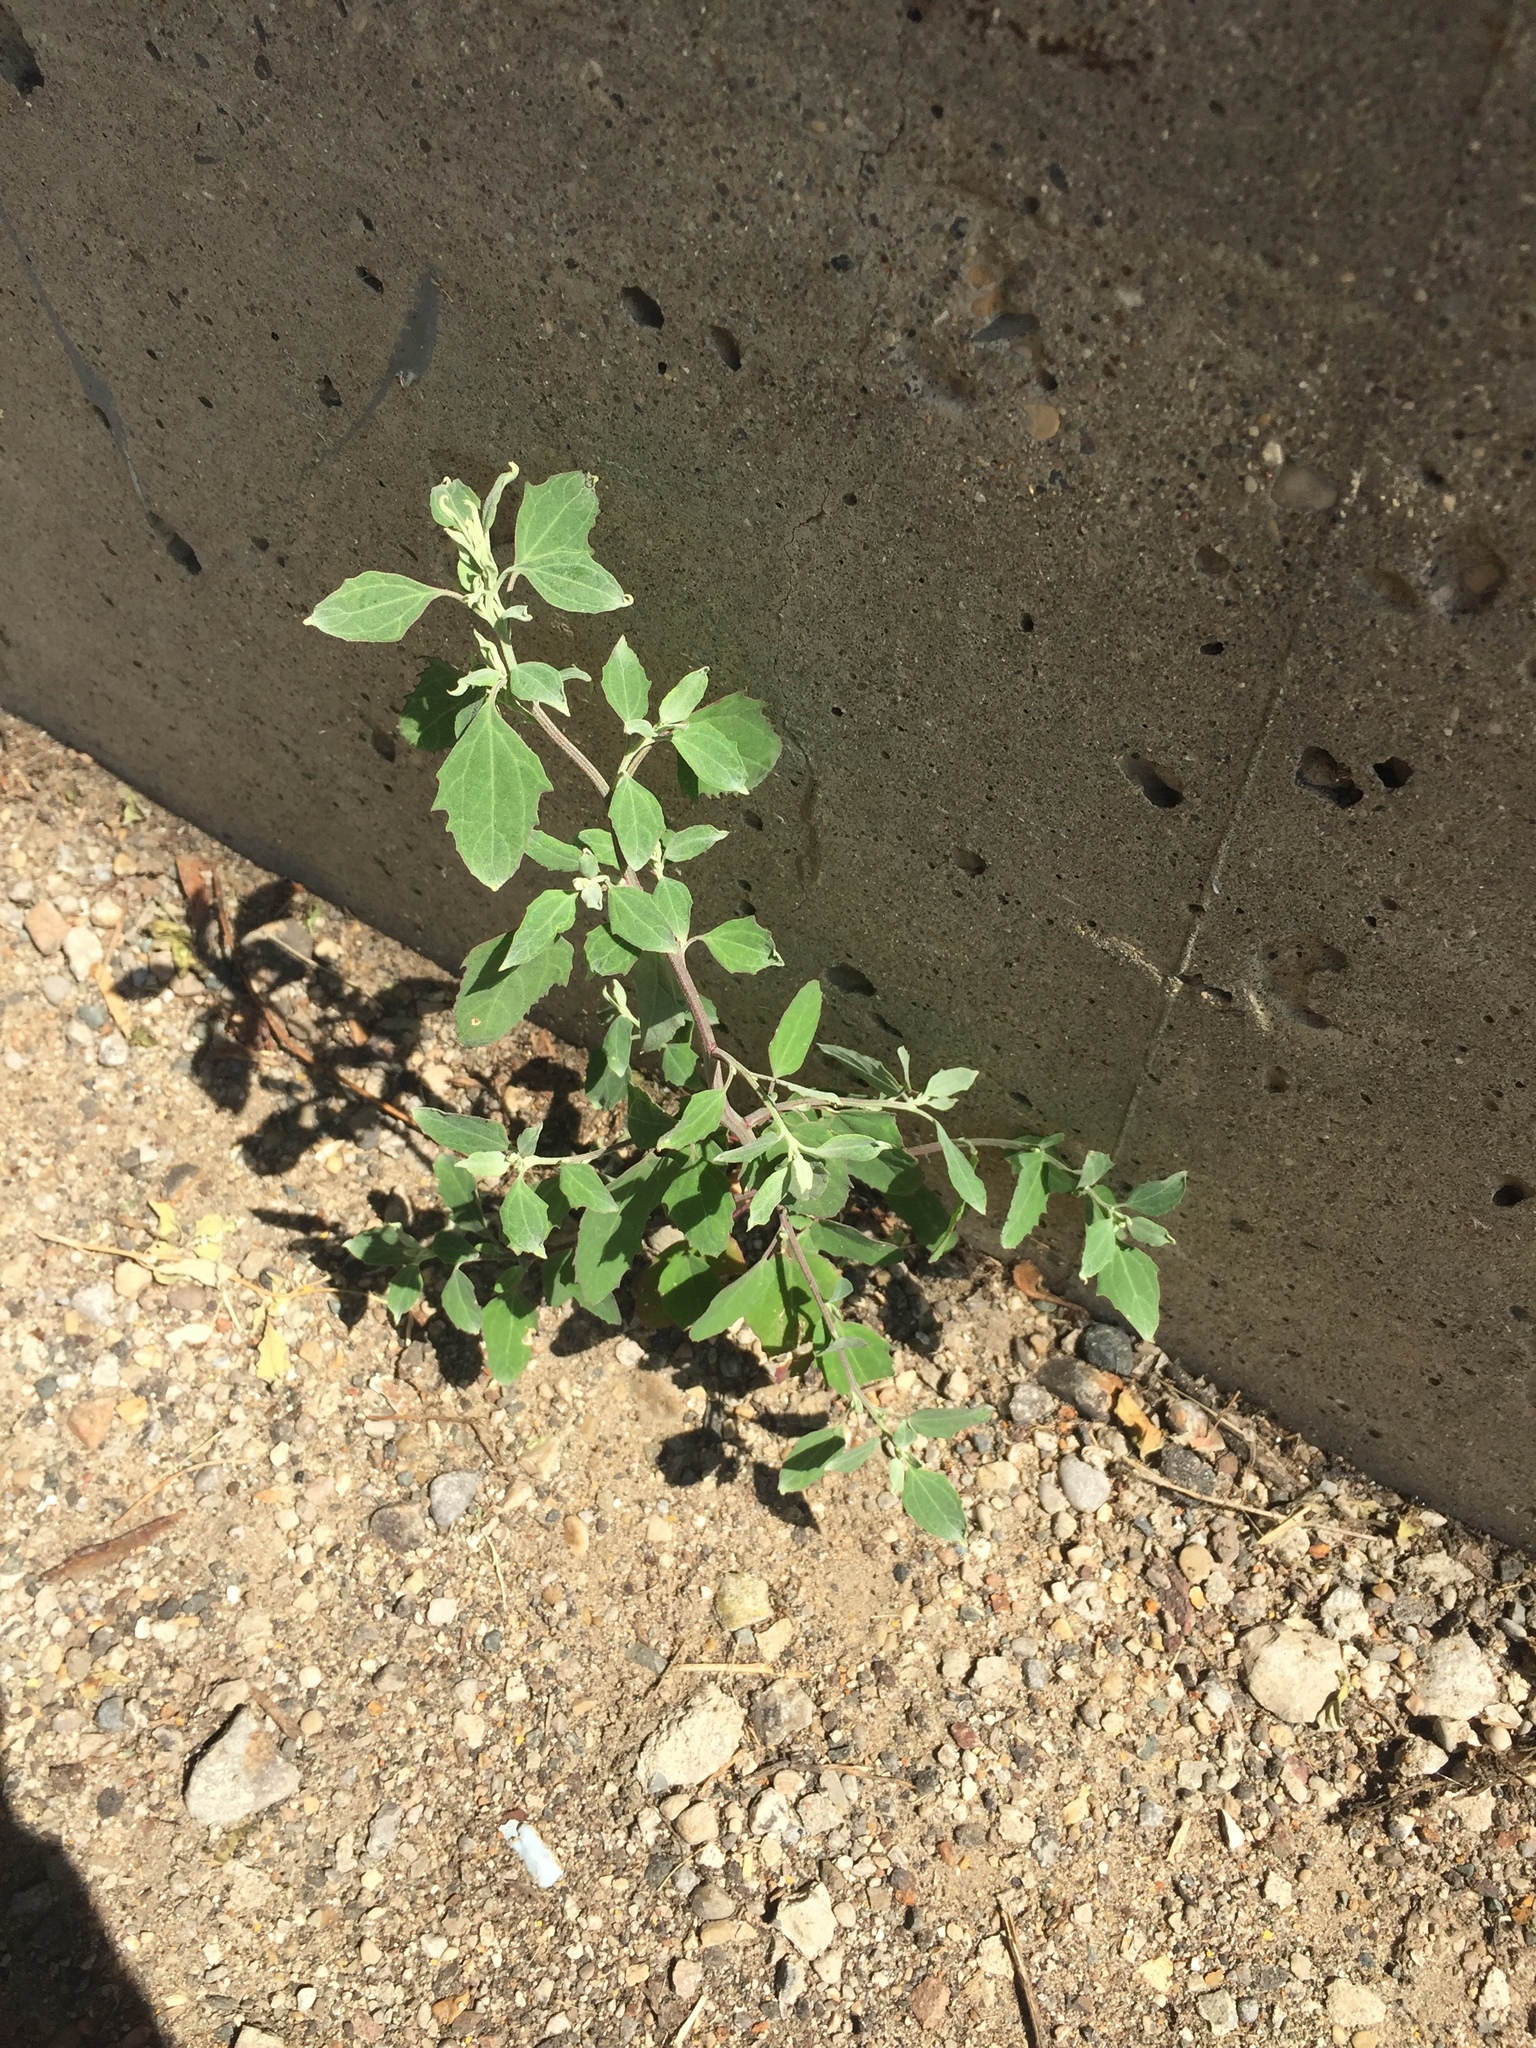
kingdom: Plantae
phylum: Tracheophyta
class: Magnoliopsida
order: Caryophyllales
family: Amaranthaceae
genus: Chenopodium
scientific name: Chenopodium album
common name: Fat-hen
